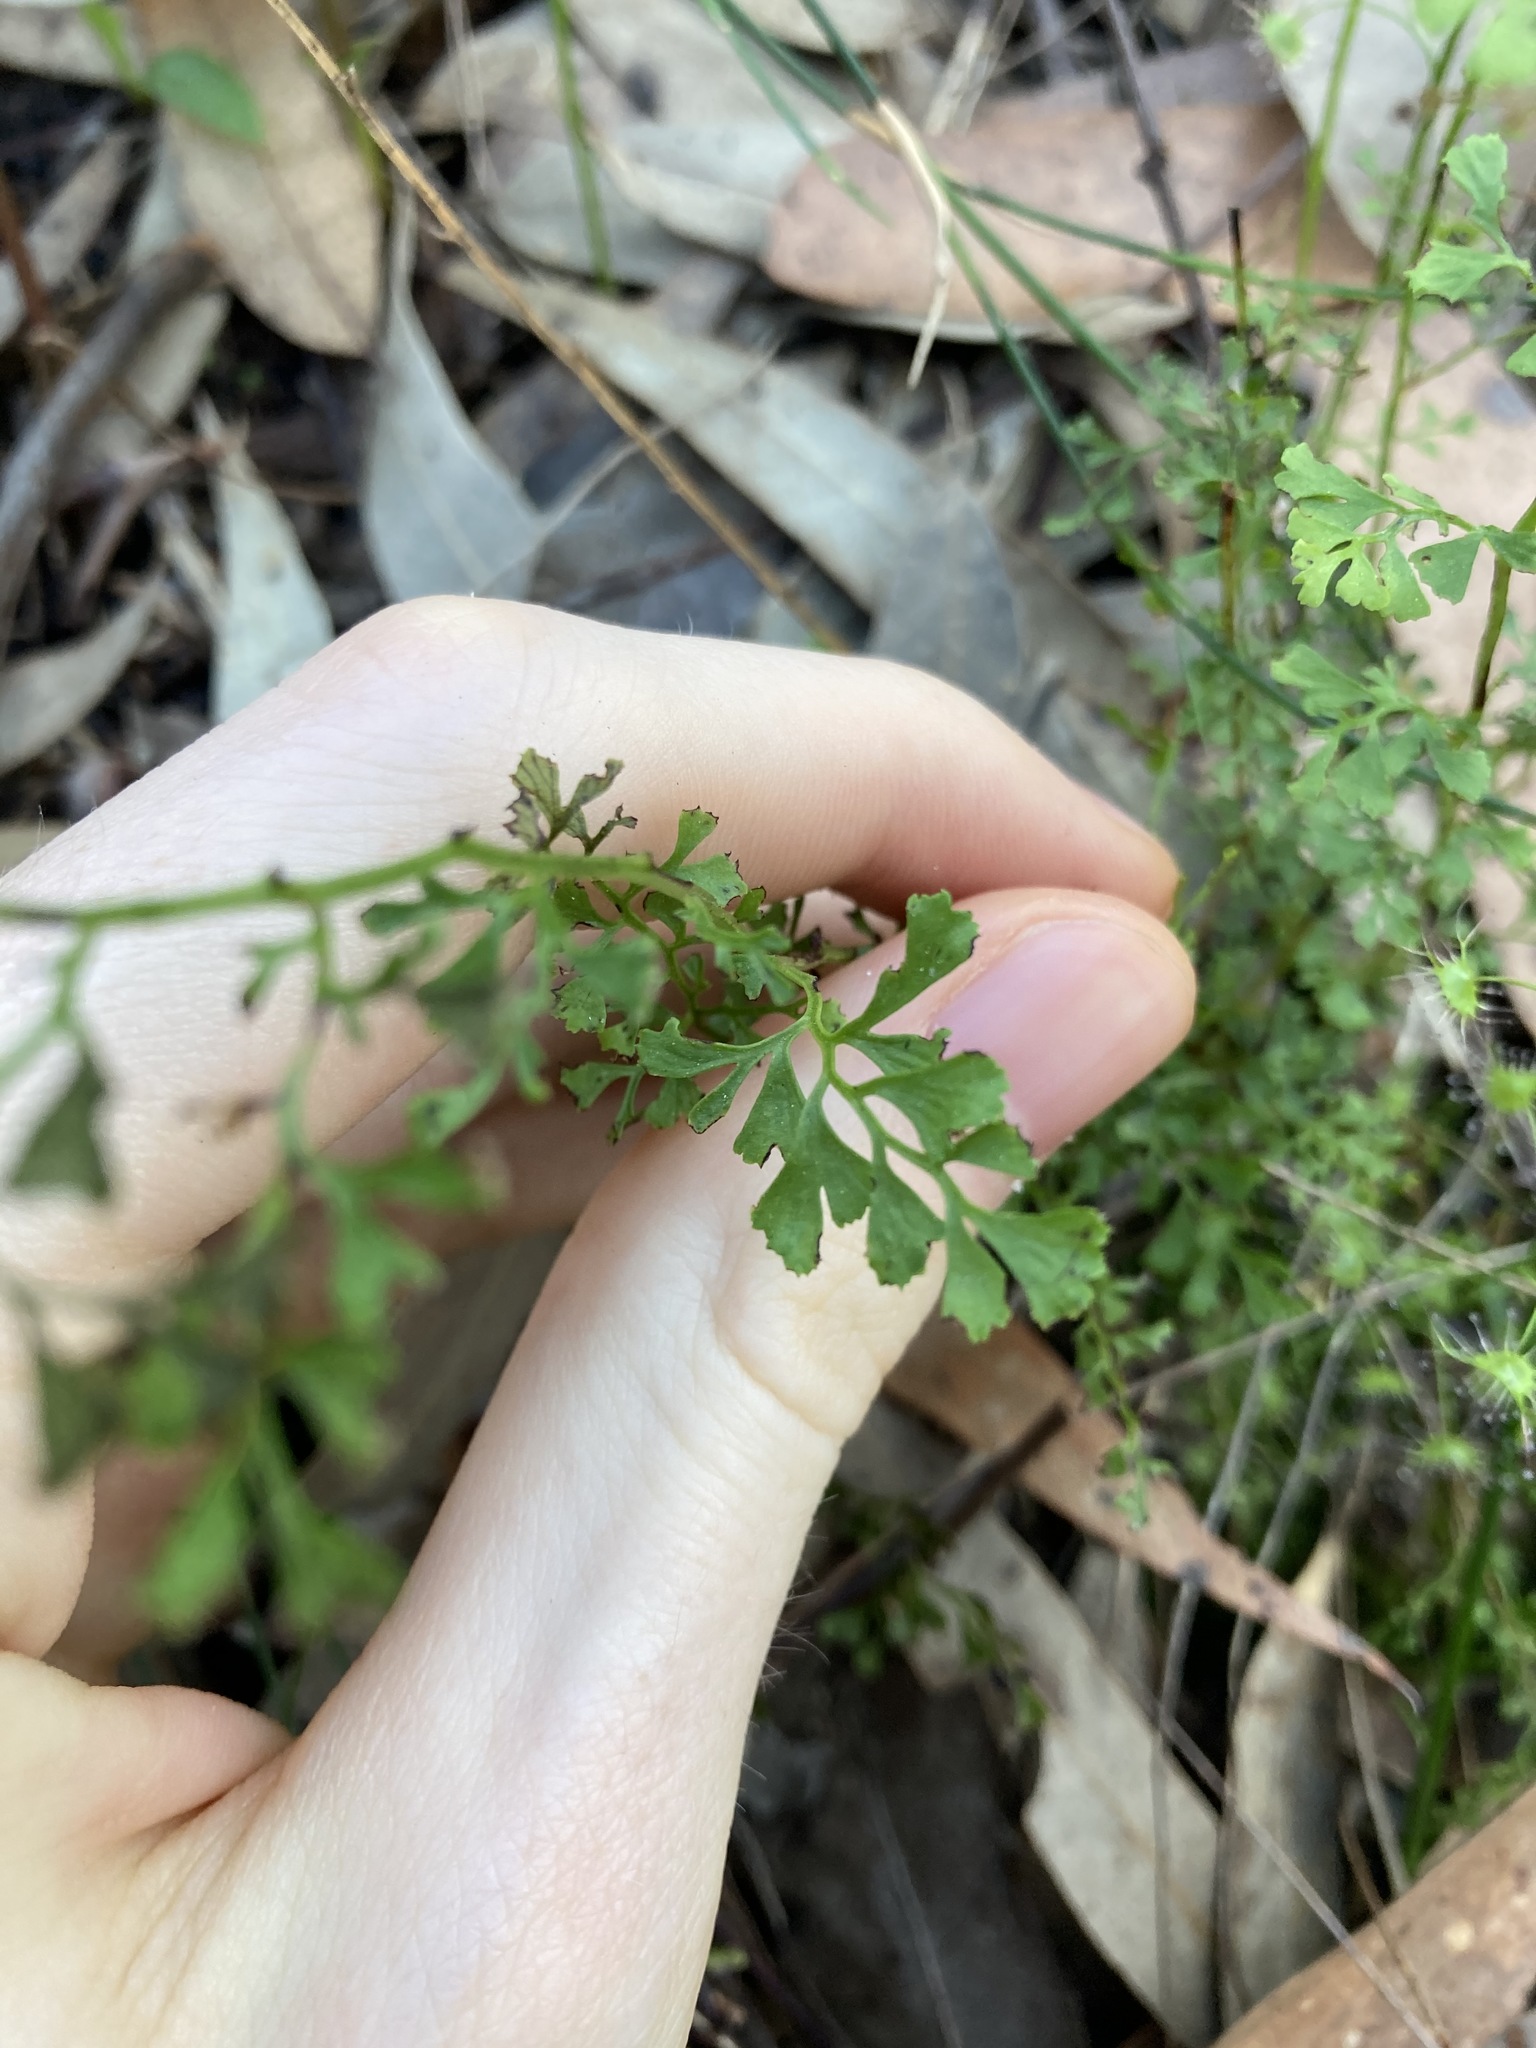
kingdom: Plantae
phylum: Tracheophyta
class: Polypodiopsida
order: Polypodiales
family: Lindsaeaceae
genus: Lindsaea
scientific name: Lindsaea microphylla
